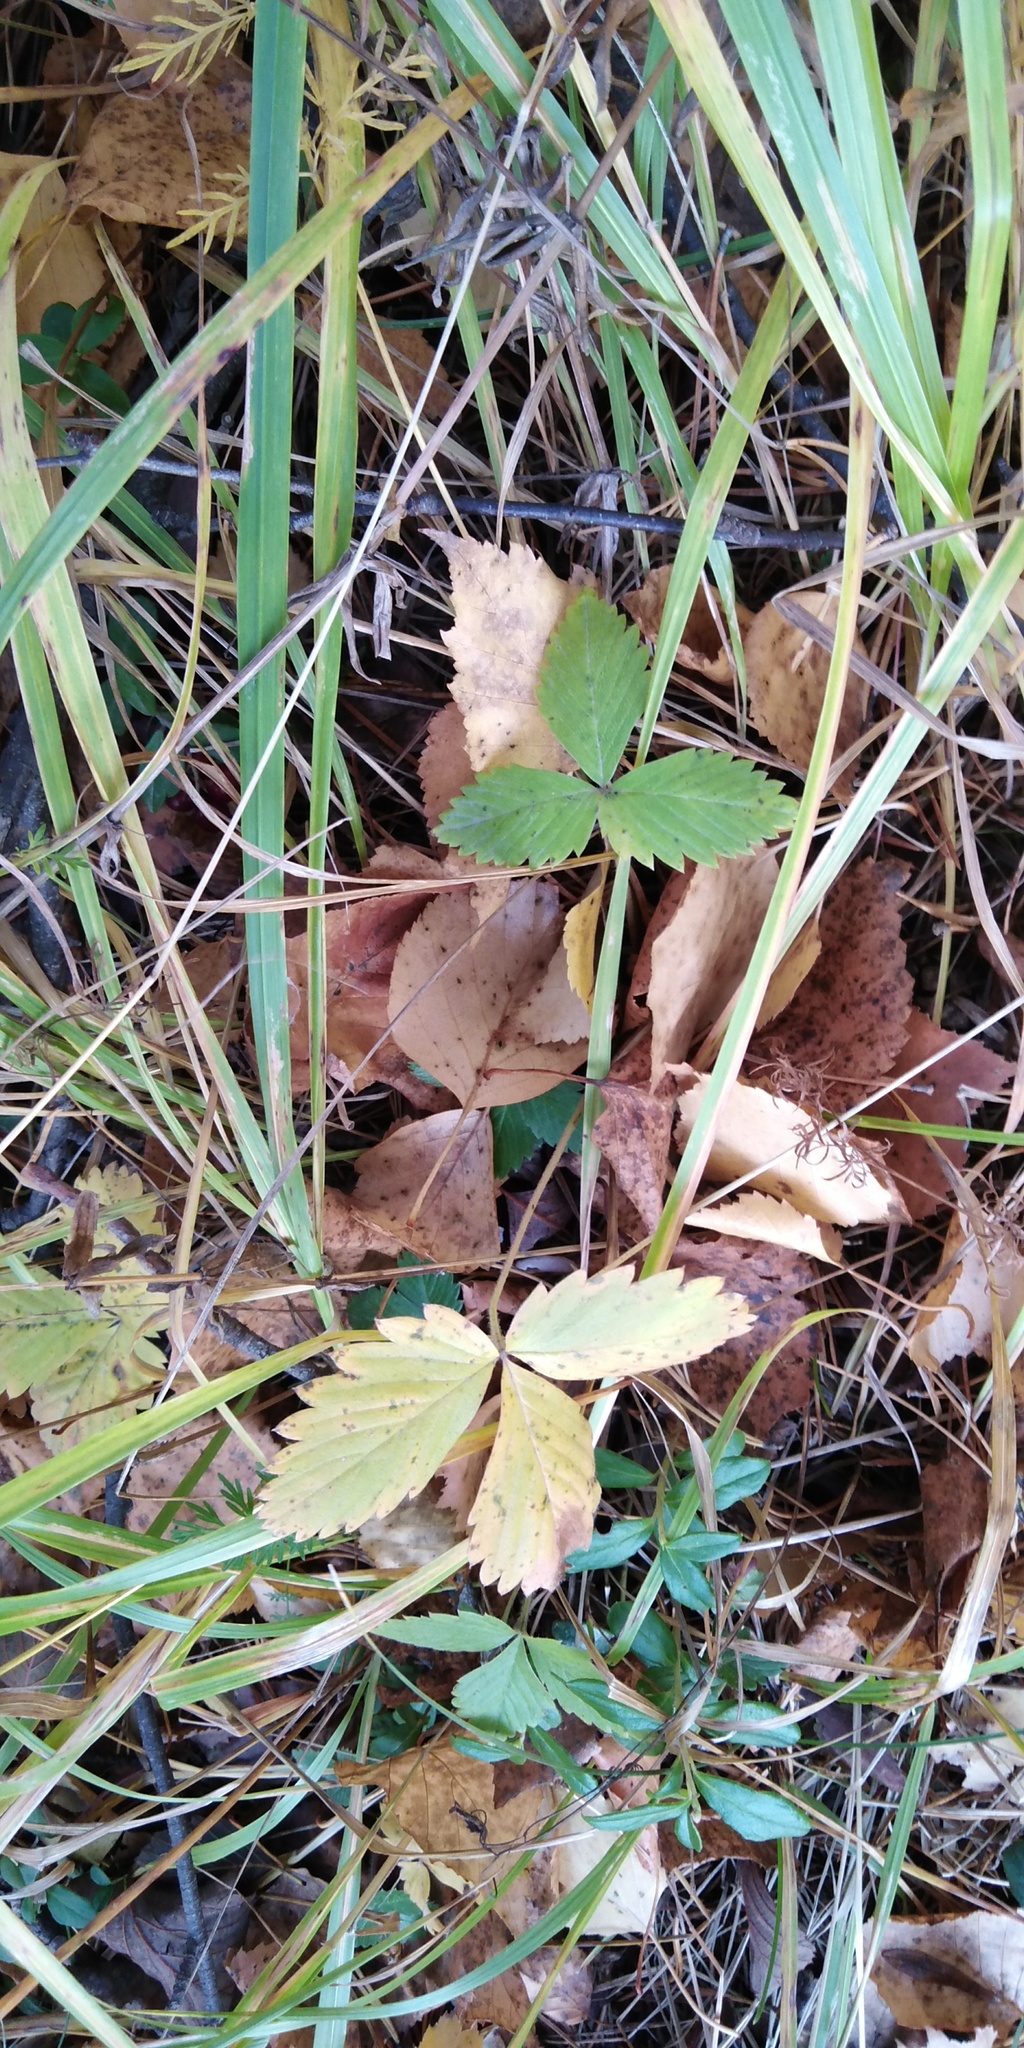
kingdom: Plantae
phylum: Tracheophyta
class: Magnoliopsida
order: Rosales
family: Rosaceae
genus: Fragaria
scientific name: Fragaria vesca
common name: Wild strawberry
